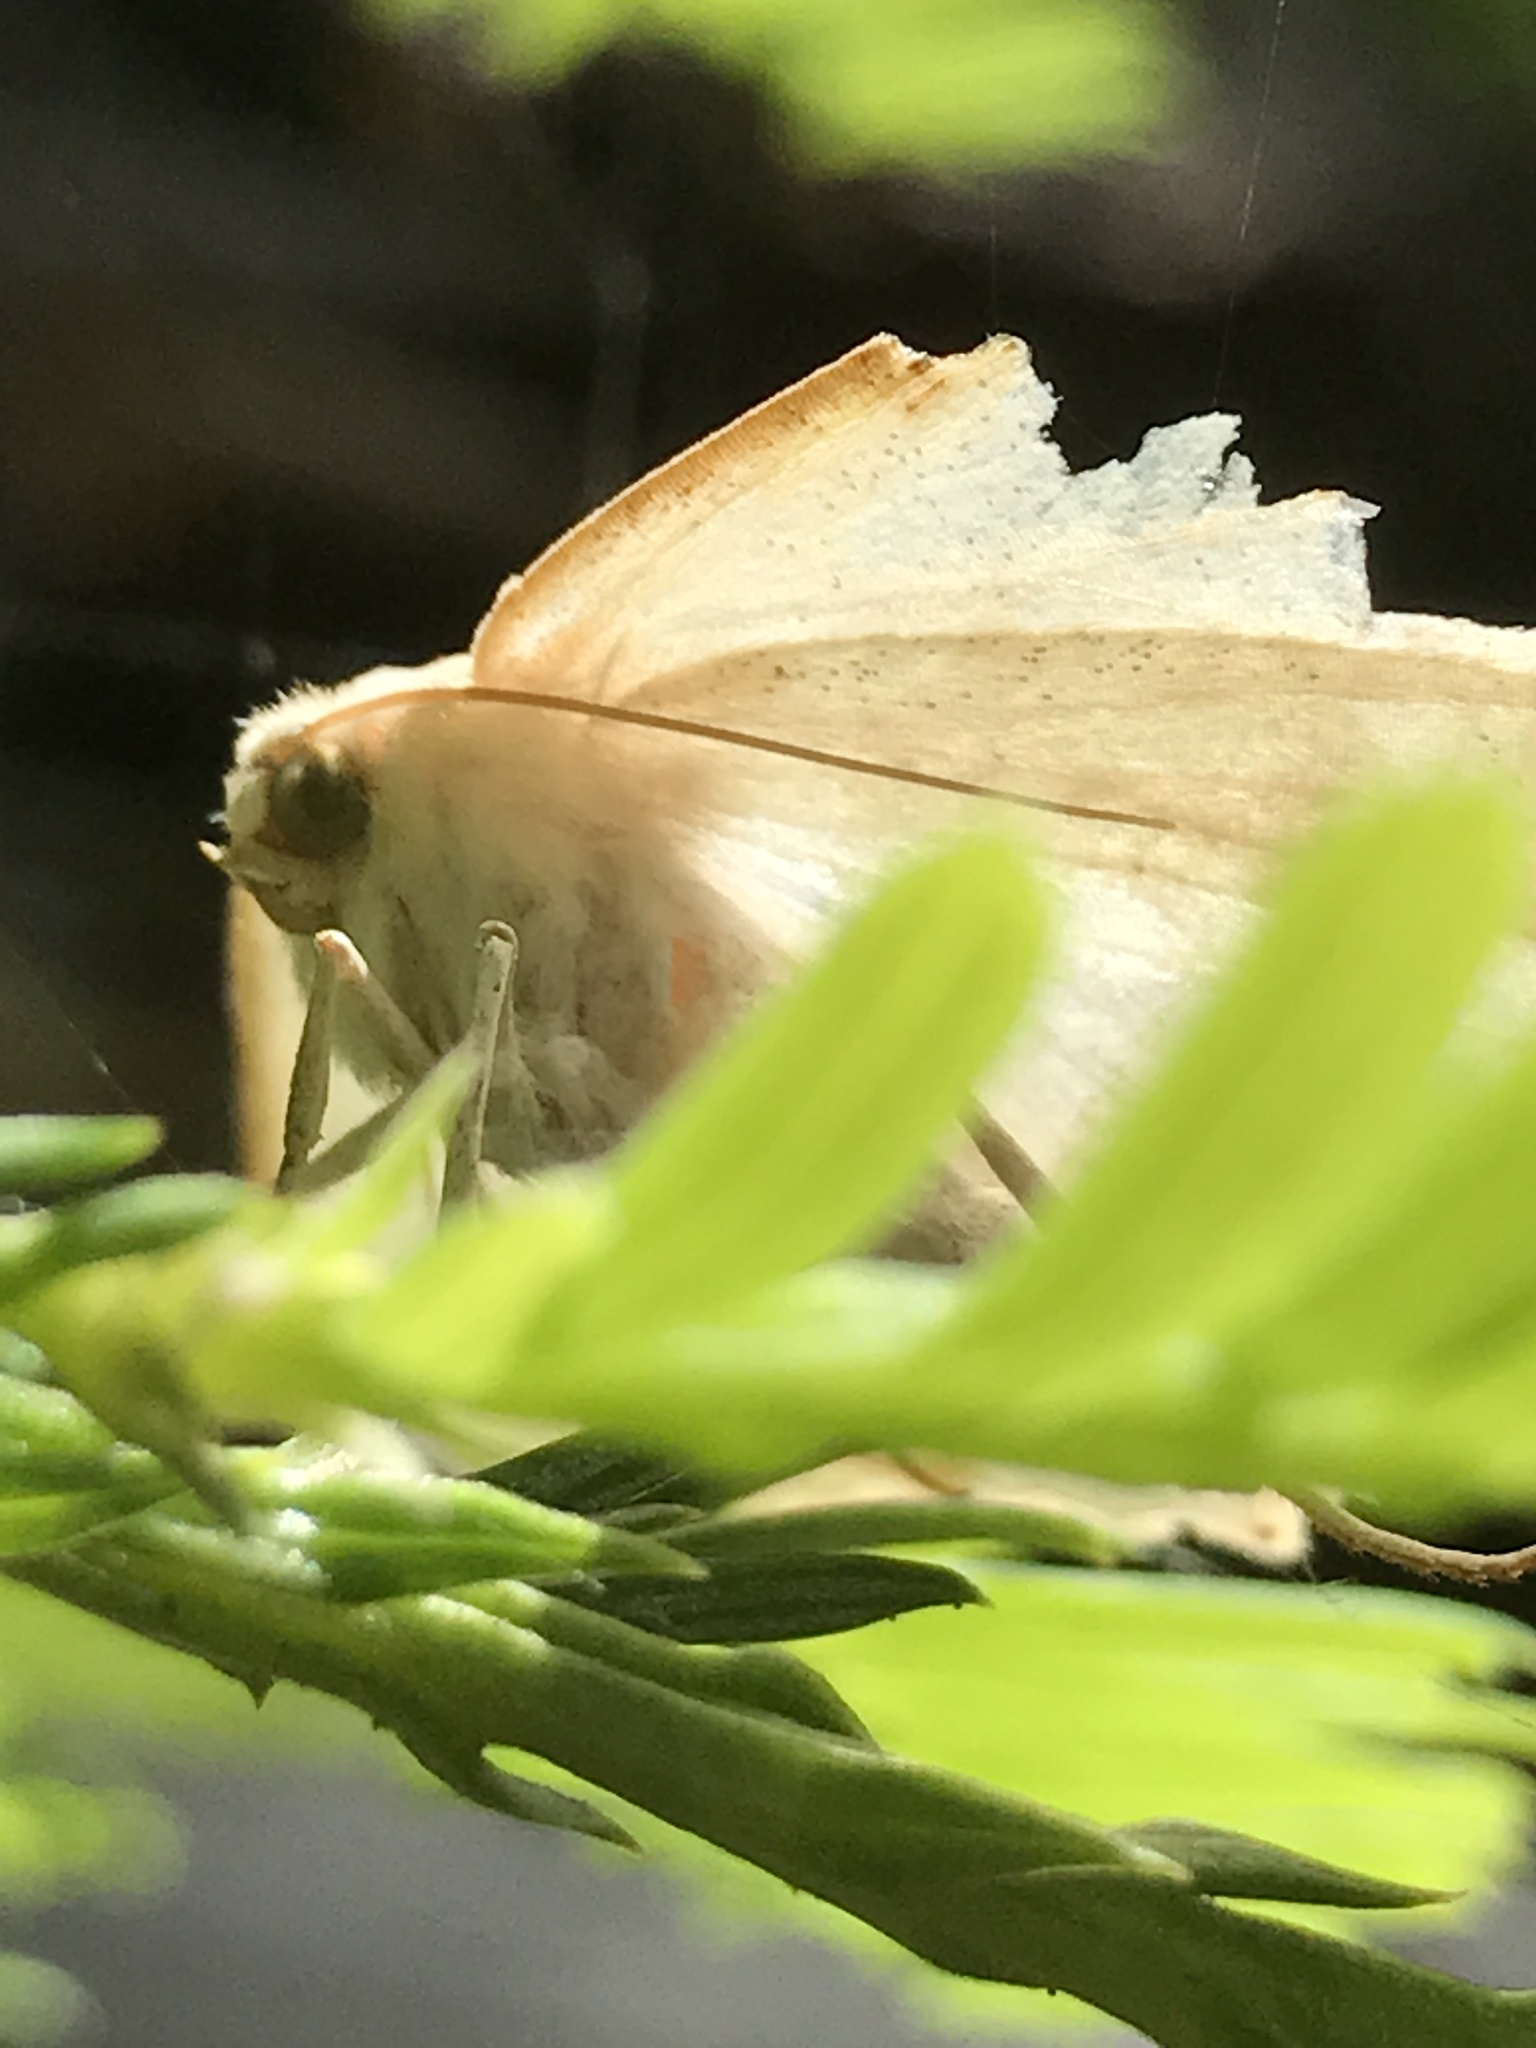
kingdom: Animalia
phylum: Arthropoda
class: Insecta
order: Lepidoptera
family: Geometridae
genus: Sabulodes
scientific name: Sabulodes aegrotata
